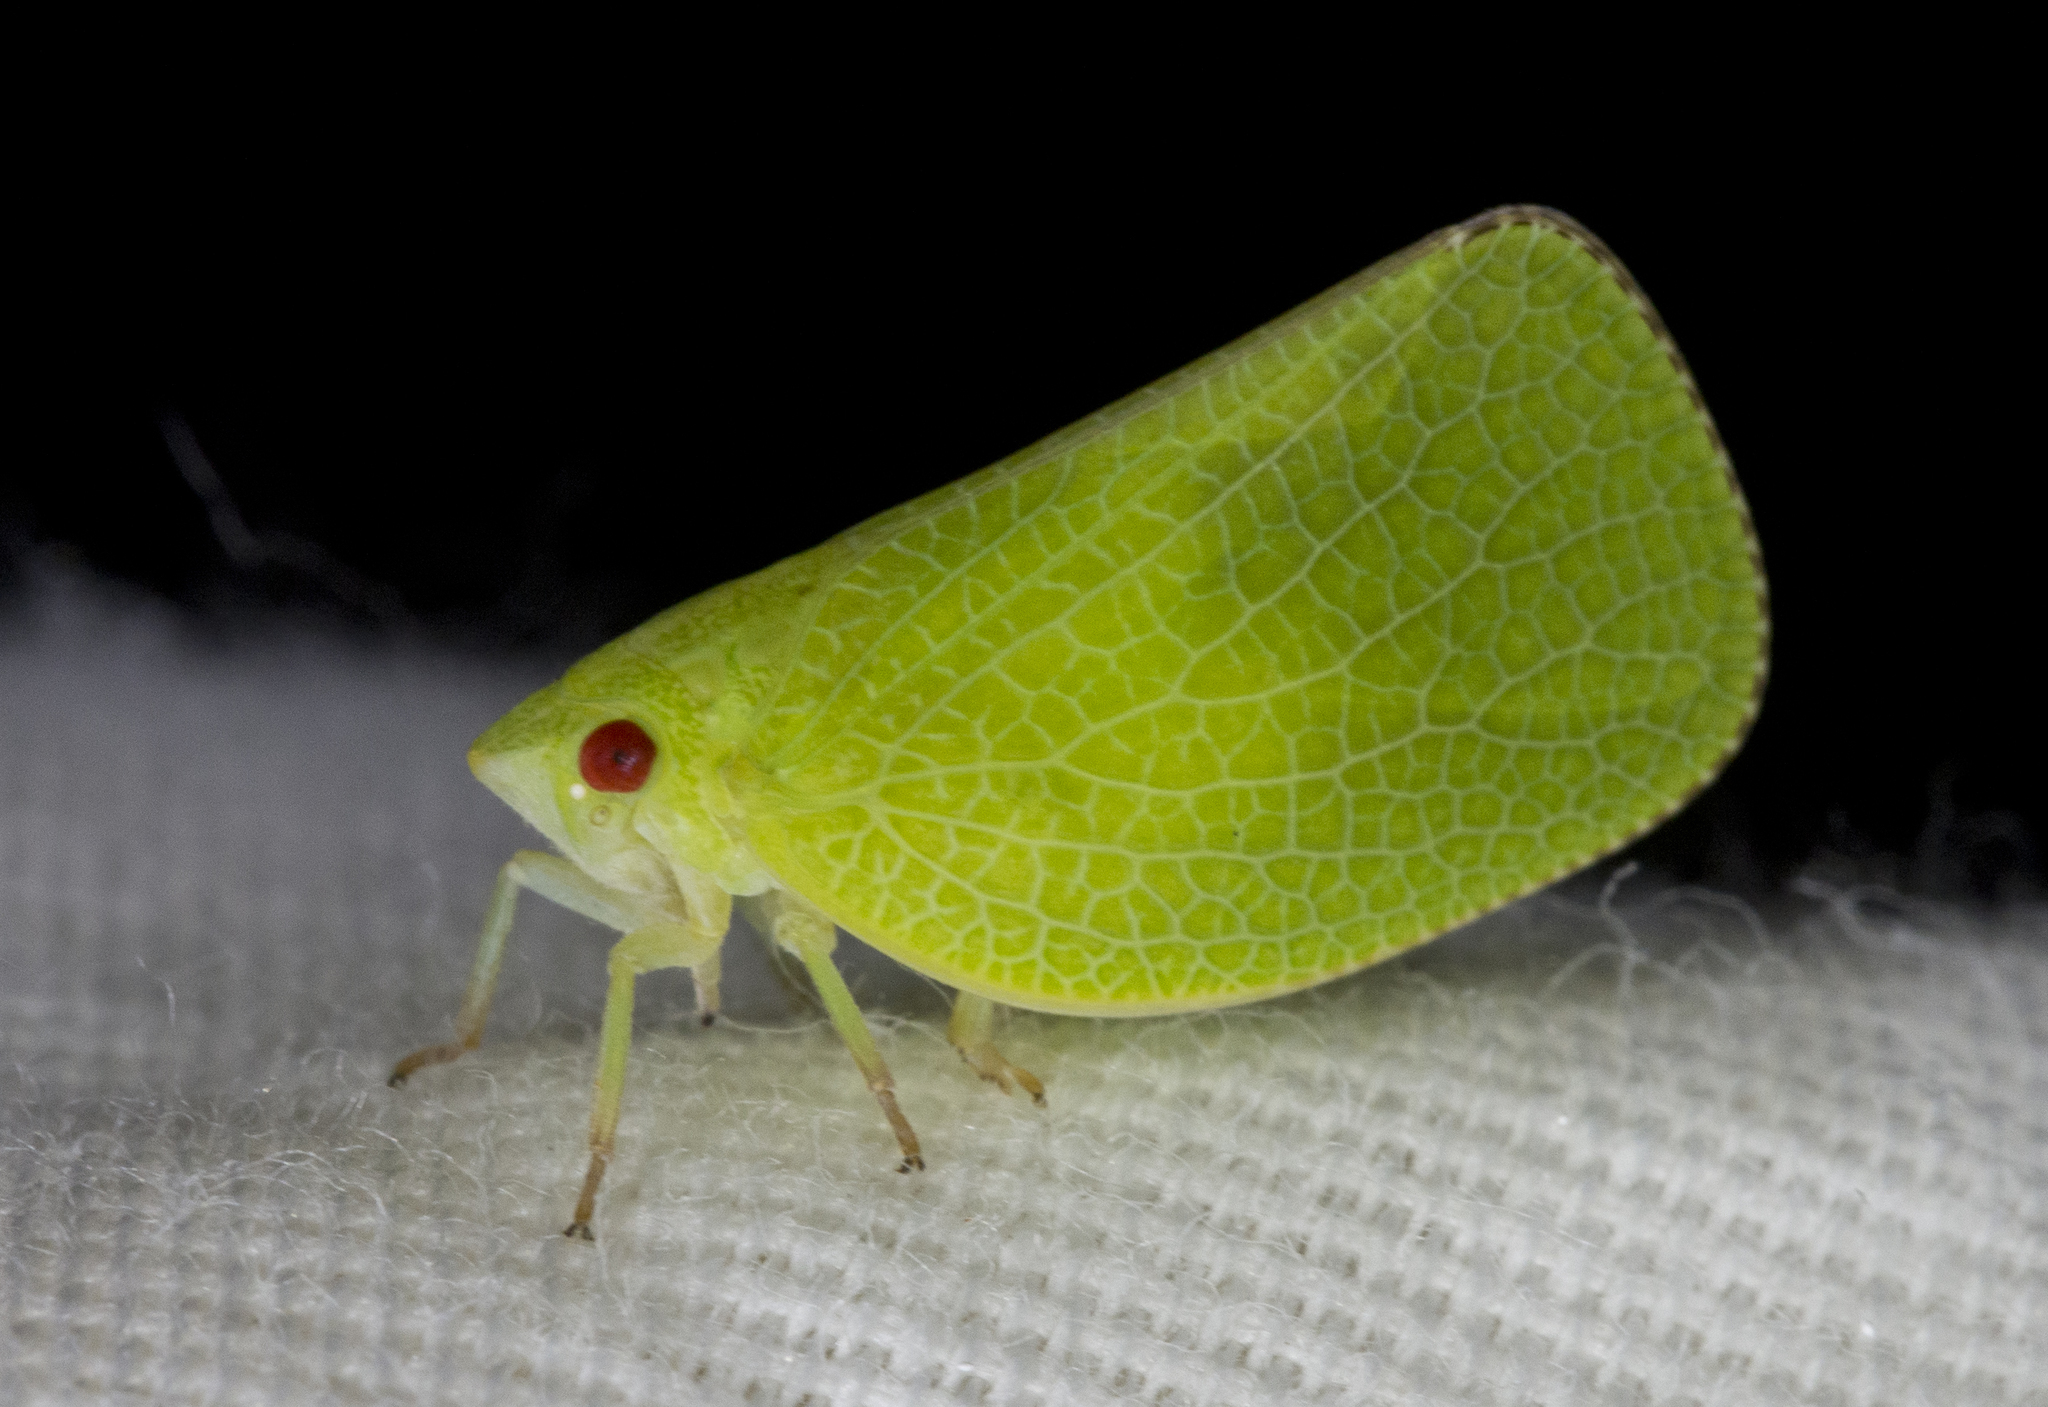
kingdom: Animalia
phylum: Arthropoda
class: Insecta
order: Hemiptera
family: Acanaloniidae
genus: Acanalonia
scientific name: Acanalonia conica
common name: Green cone-headed planthopper
